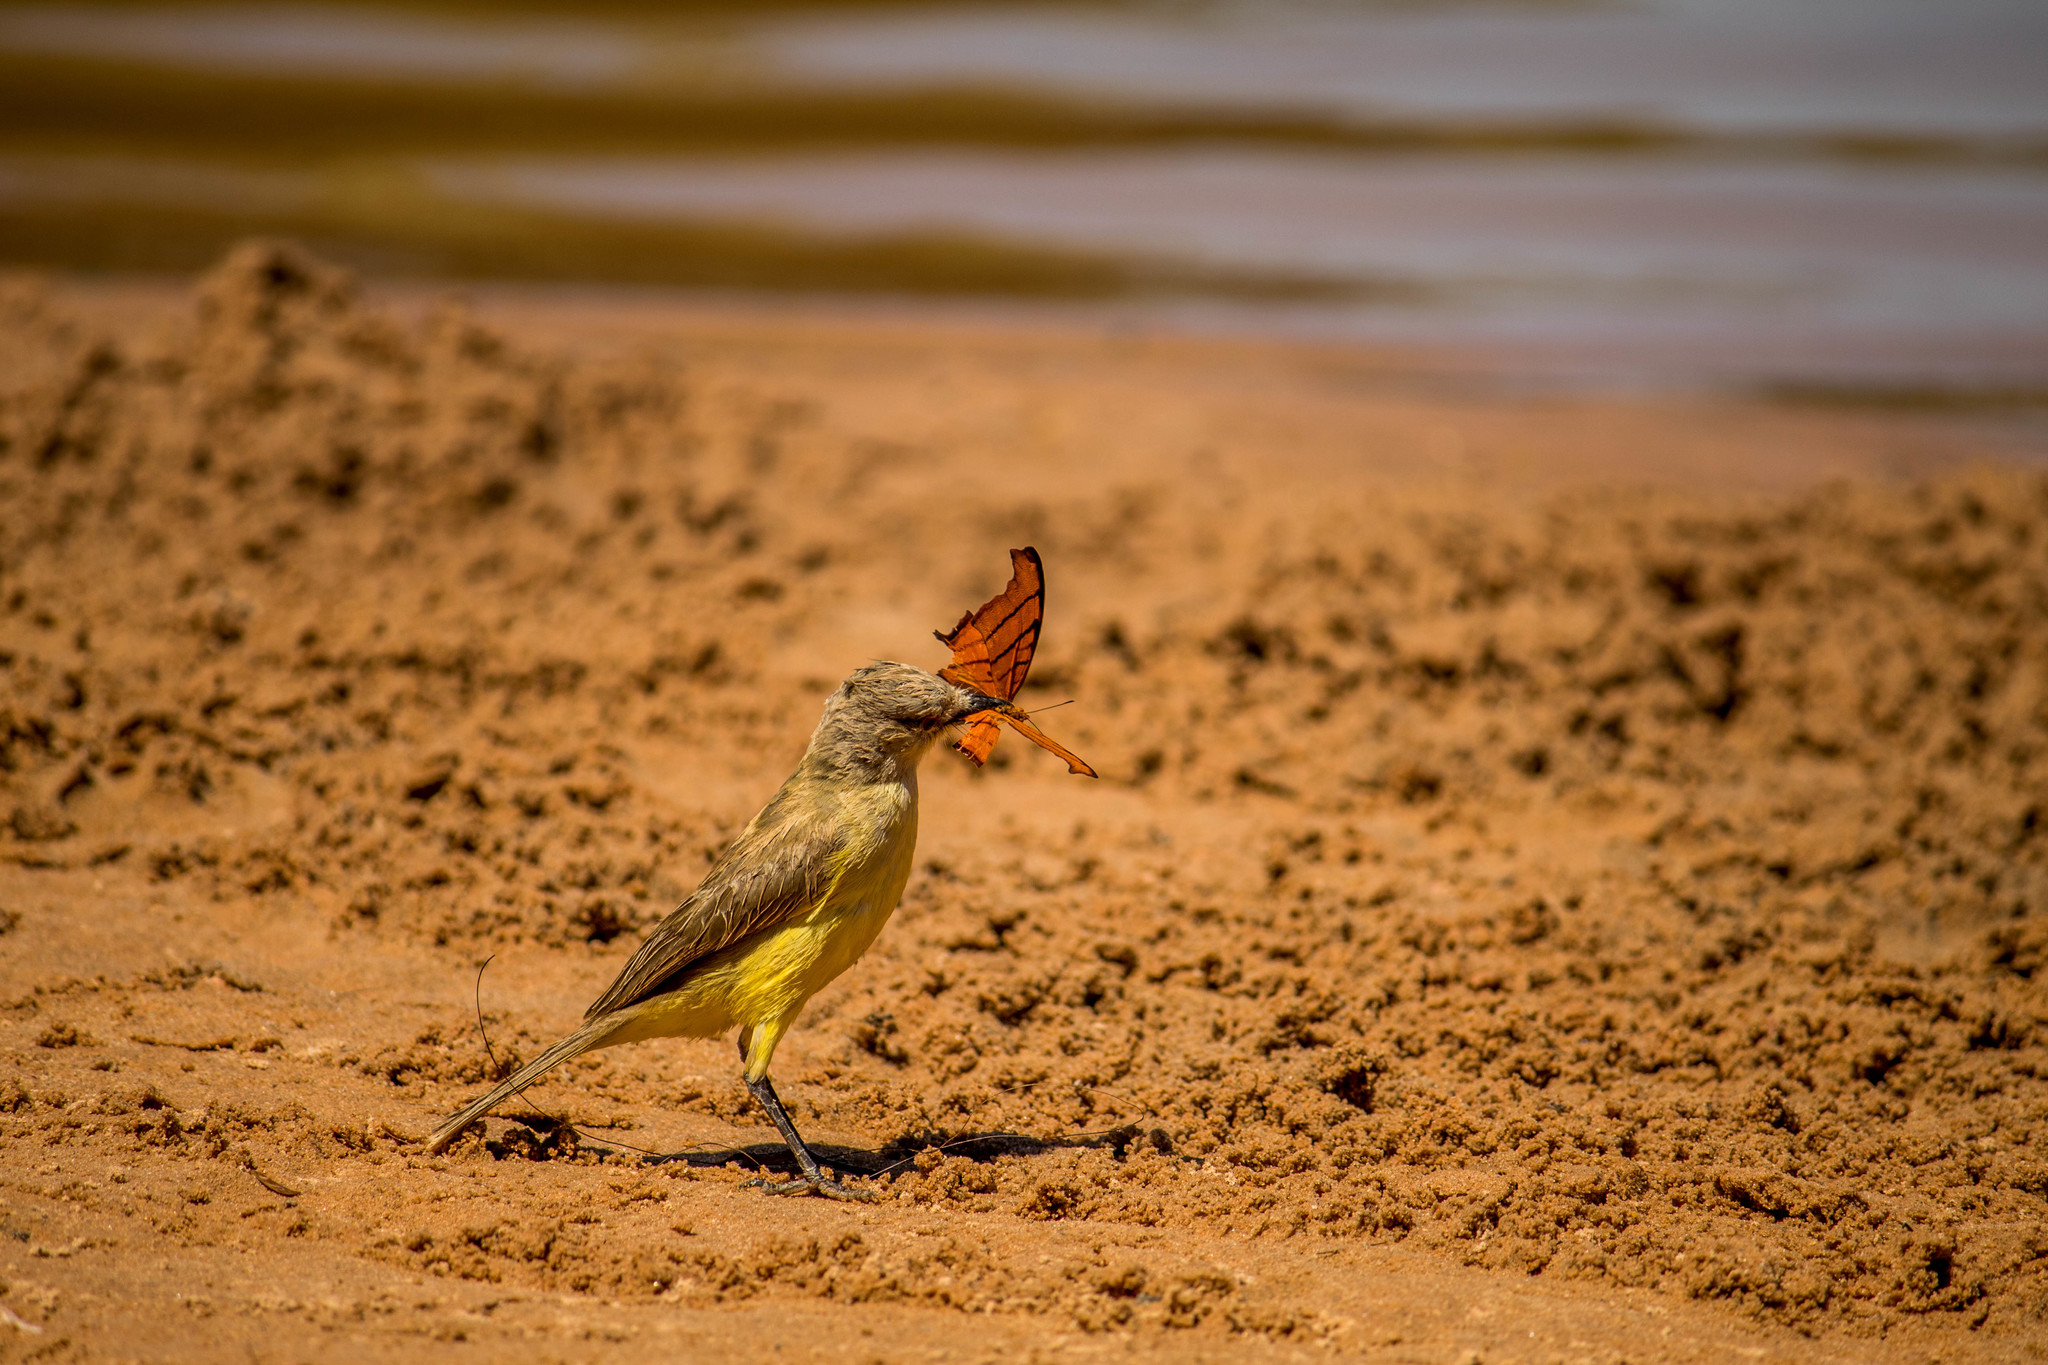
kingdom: Animalia
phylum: Chordata
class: Aves
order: Passeriformes
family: Tyrannidae
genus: Machetornis
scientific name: Machetornis rixosa
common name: Cattle tyrant
